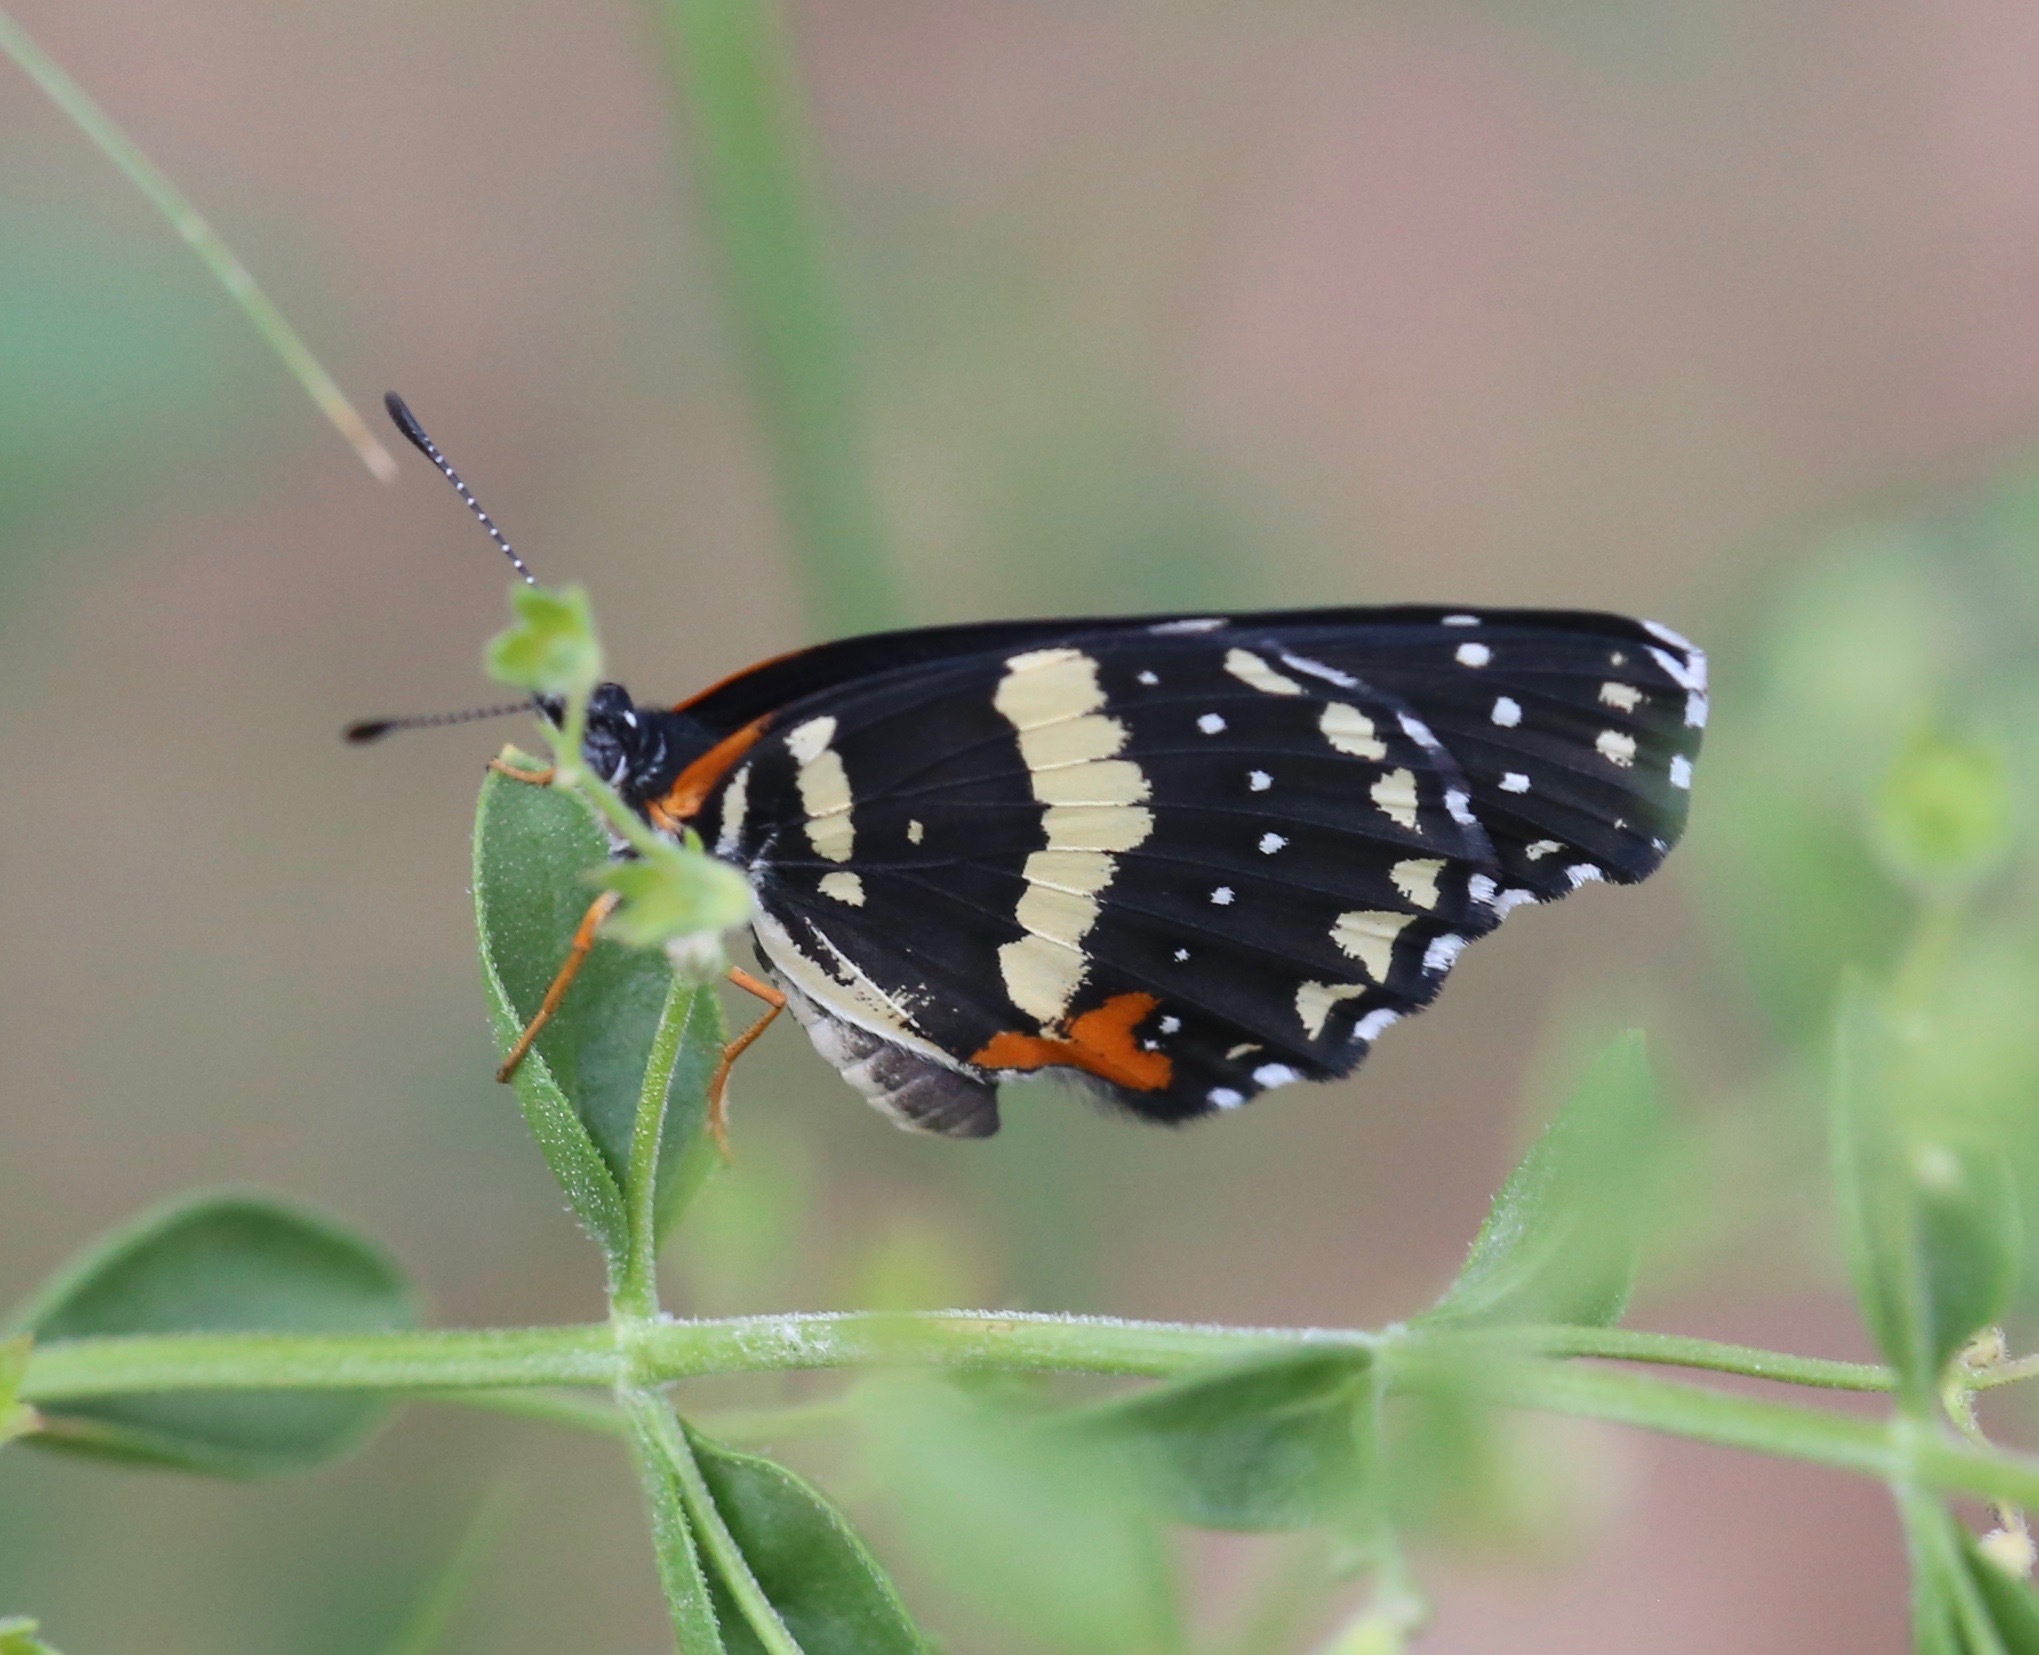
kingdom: Animalia
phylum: Arthropoda
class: Insecta
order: Lepidoptera
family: Nymphalidae
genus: Chlosyne
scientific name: Chlosyne lacinia
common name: Bordered patch
